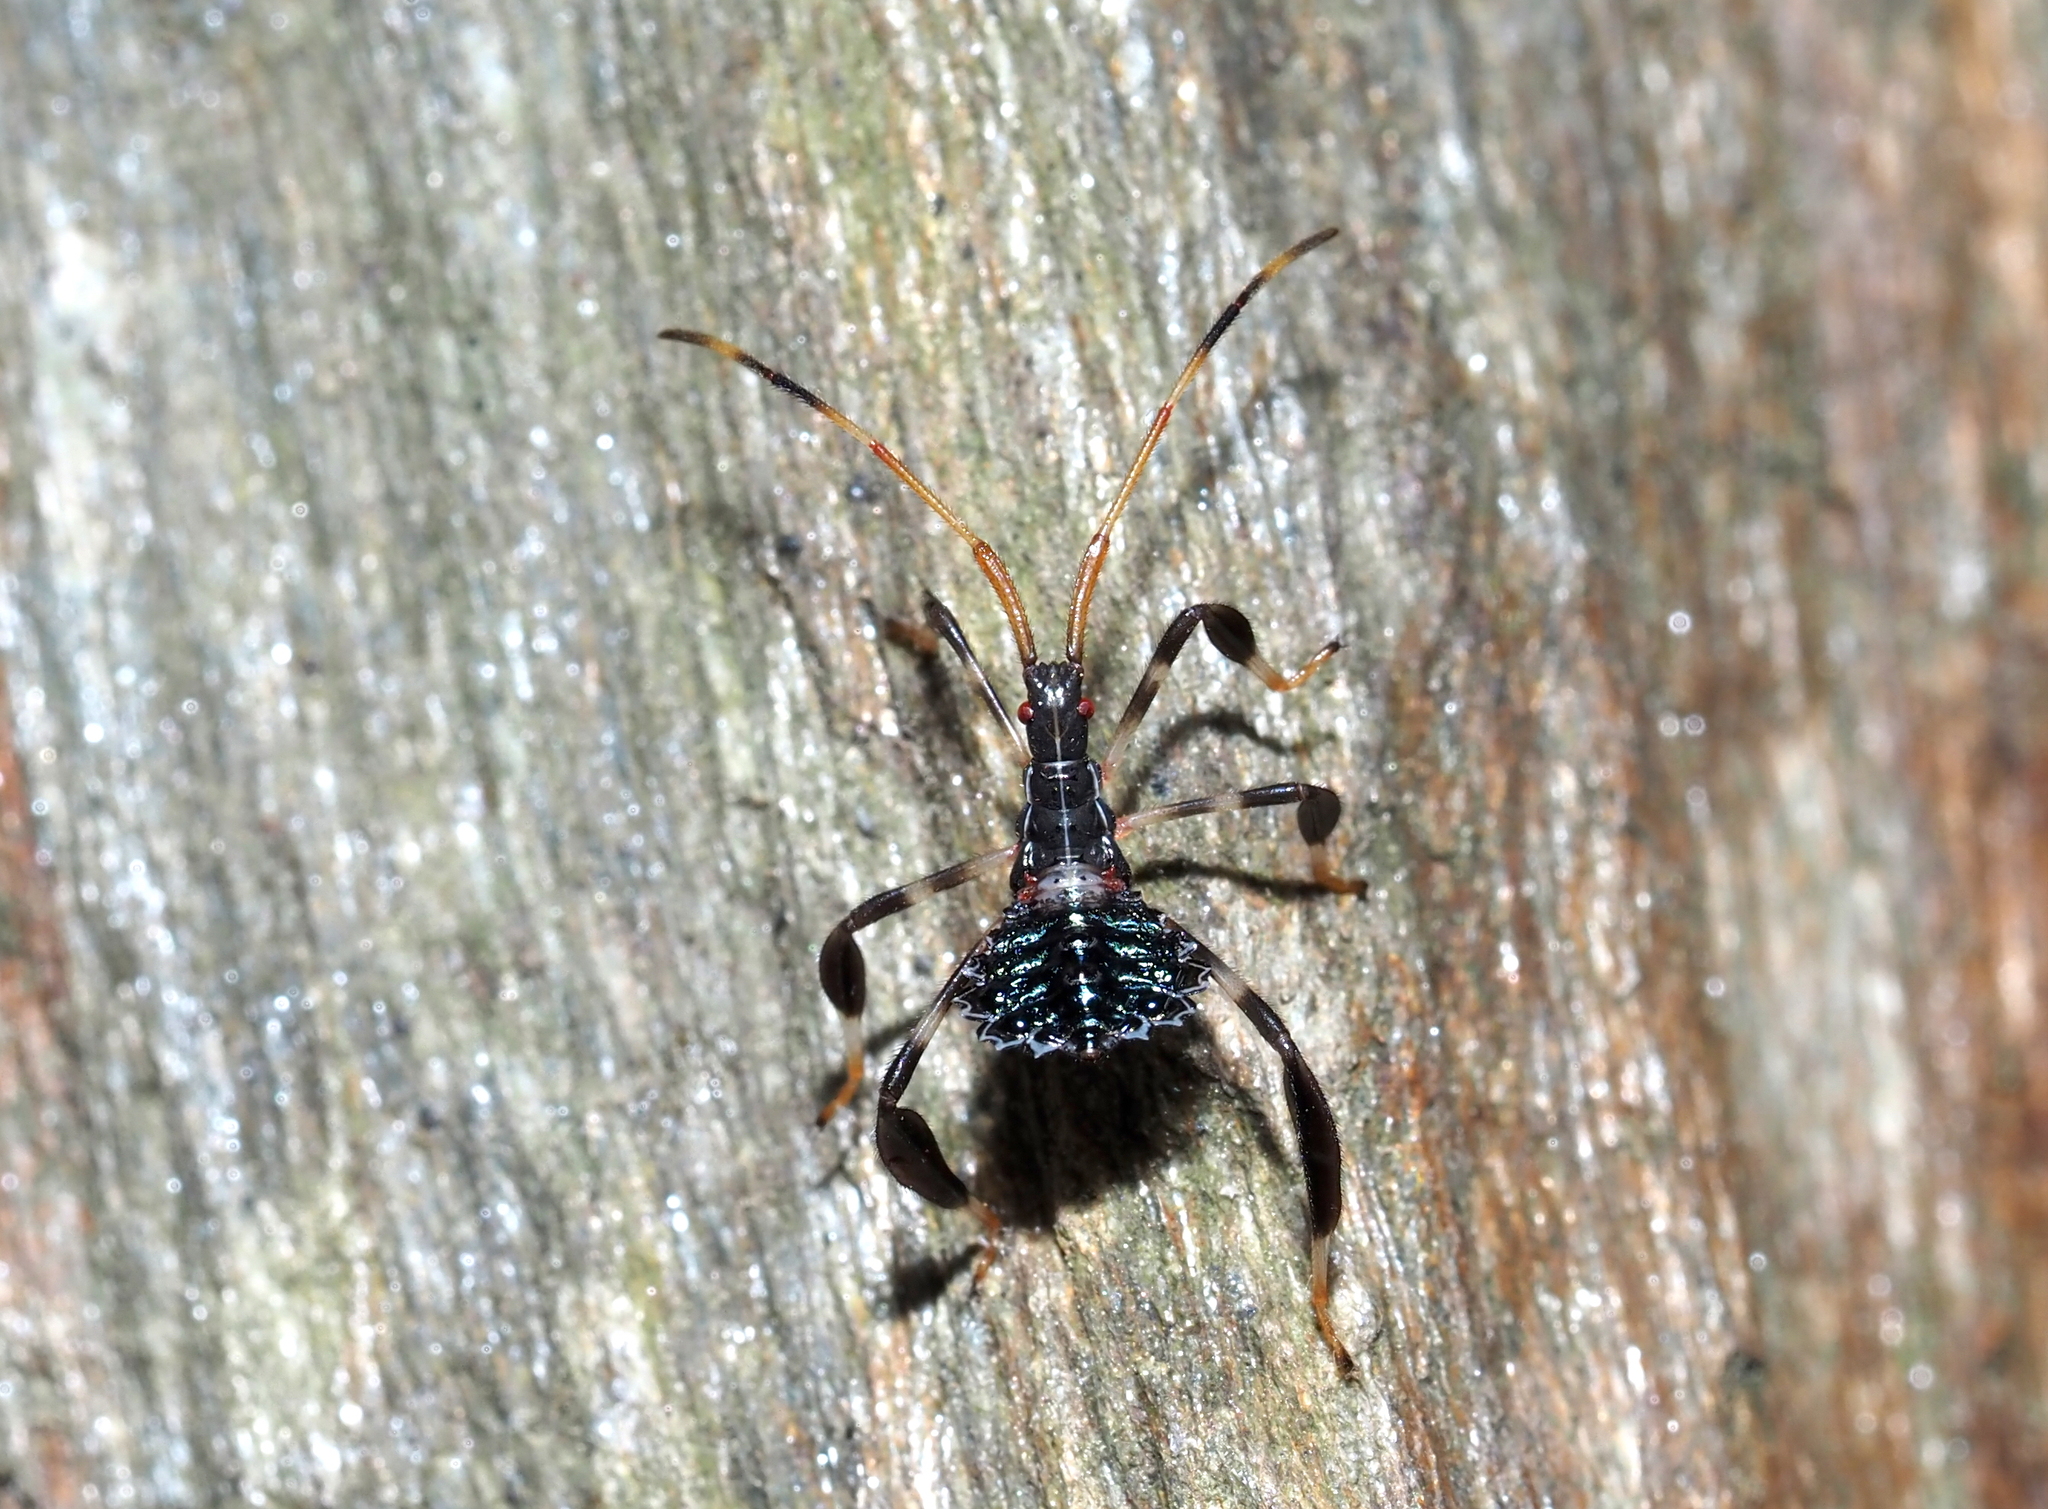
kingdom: Animalia
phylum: Arthropoda
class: Insecta
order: Hemiptera
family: Coreidae
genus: Acanthocephala
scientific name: Acanthocephala terminalis
